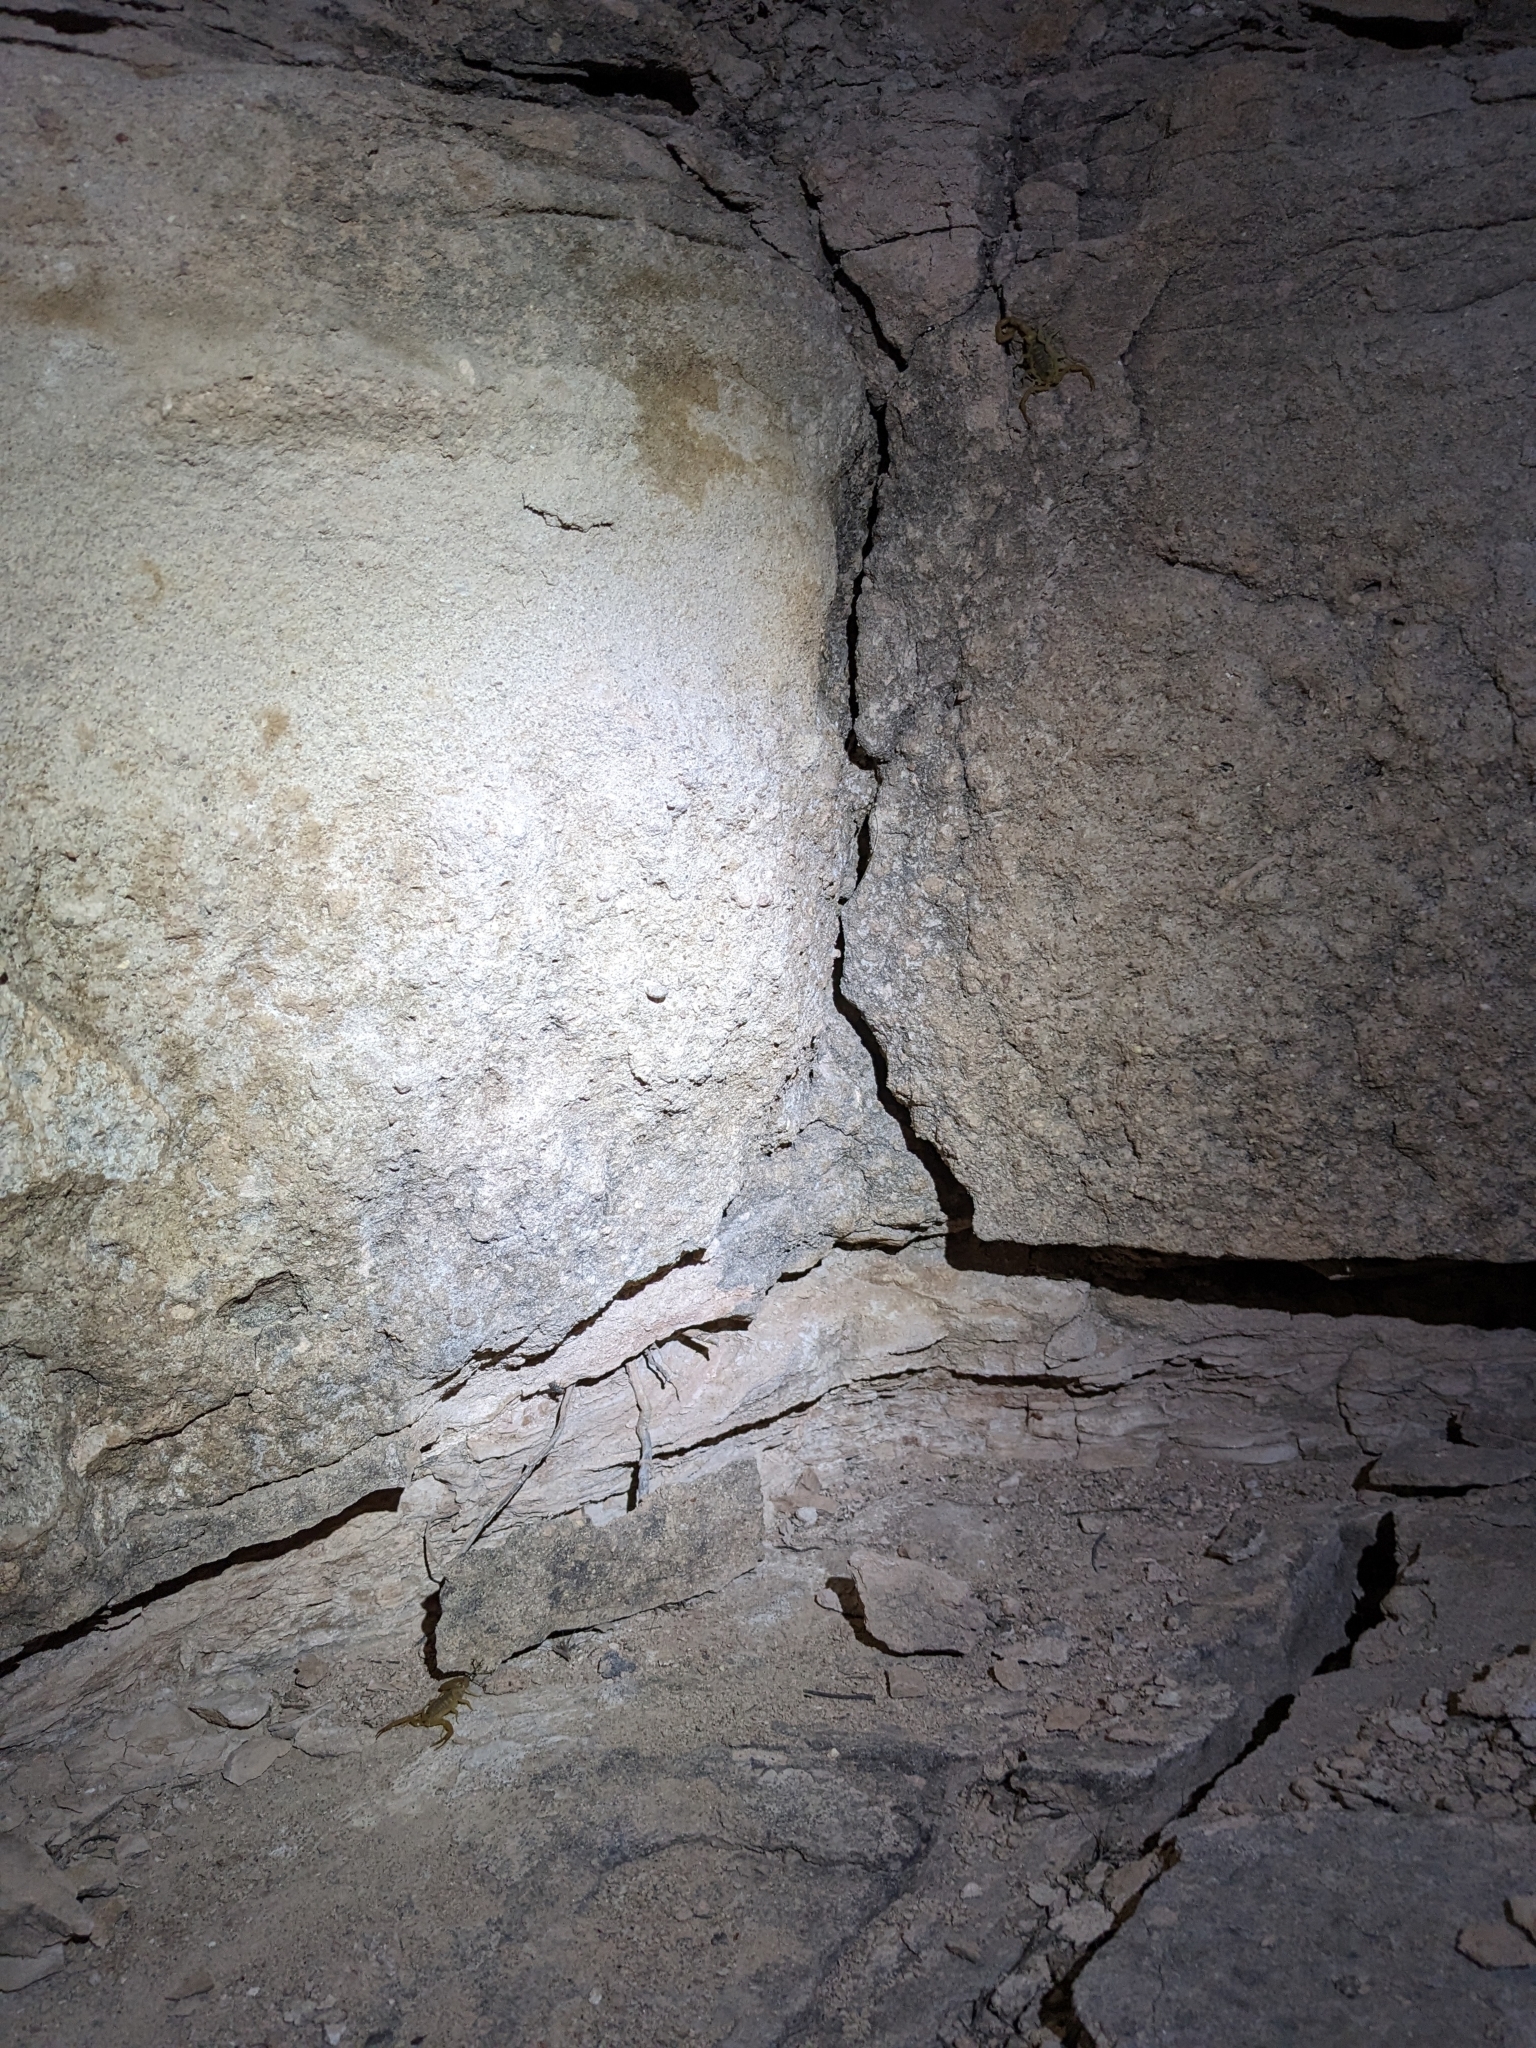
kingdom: Animalia
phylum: Arthropoda
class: Arachnida
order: Scorpiones
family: Buthidae
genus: Centruroides
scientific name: Centruroides sculpturatus
